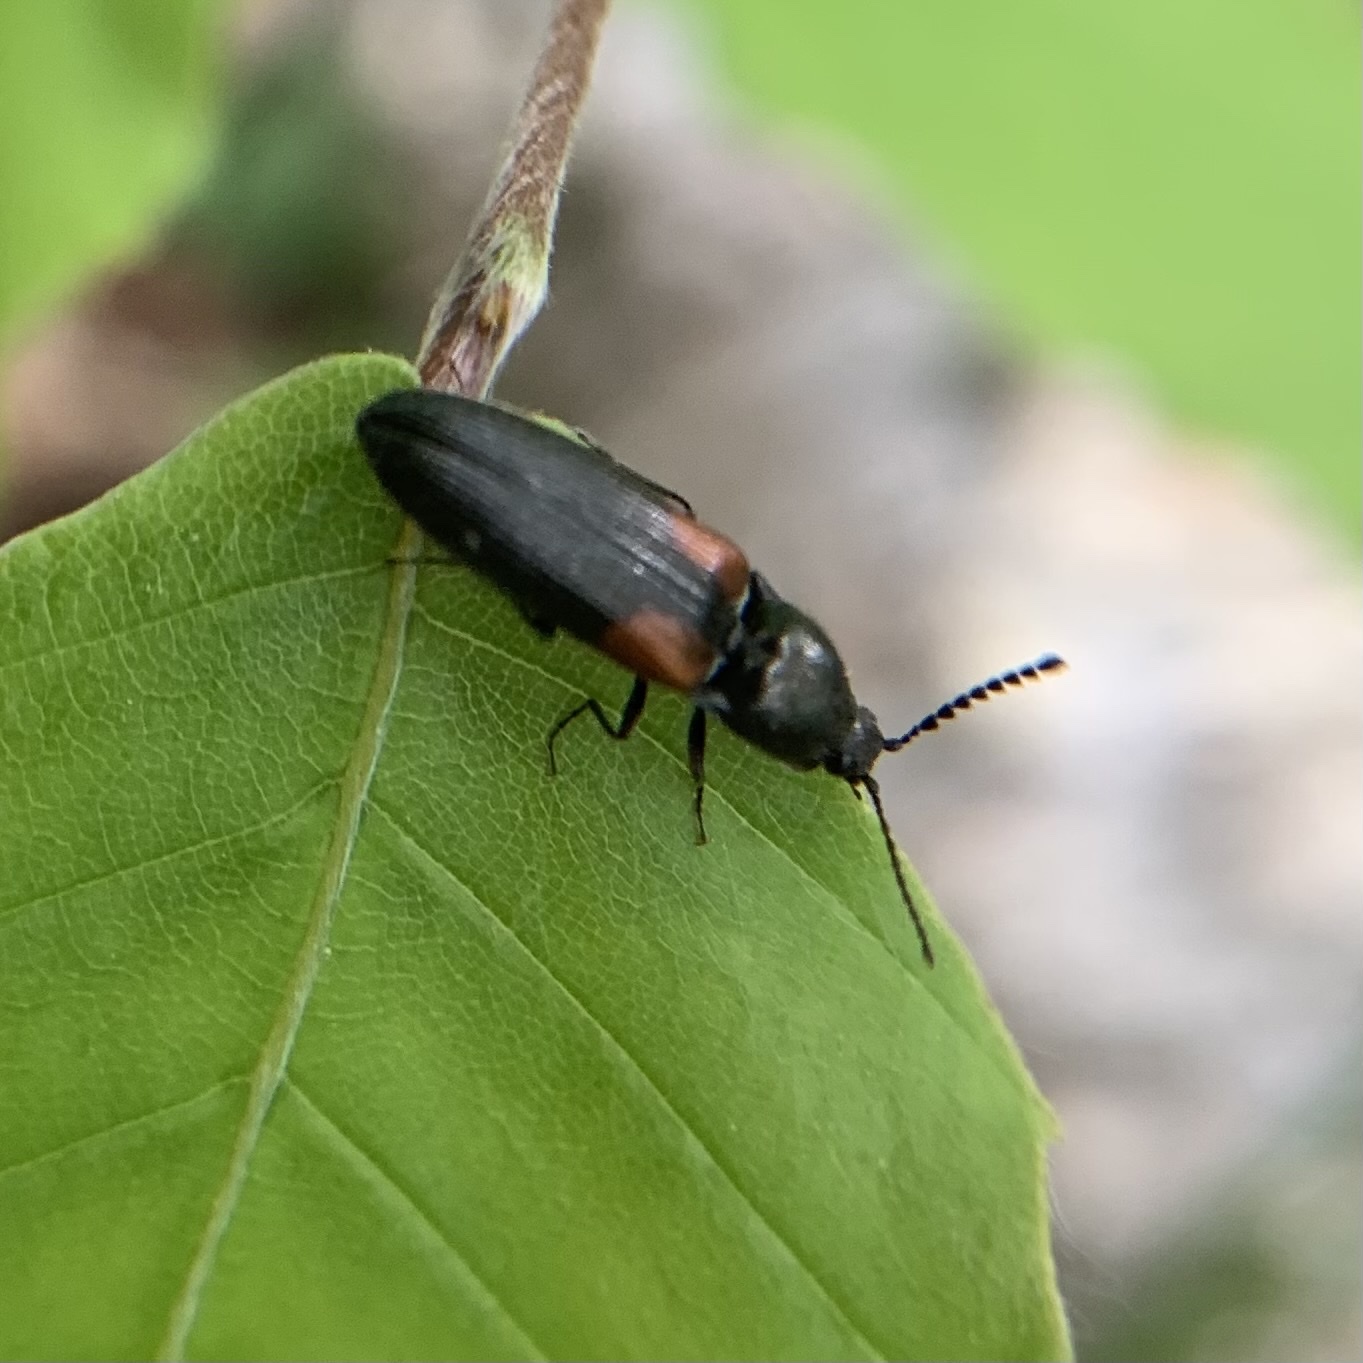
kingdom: Animalia
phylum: Arthropoda
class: Insecta
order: Coleoptera
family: Elateridae
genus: Gambrinus
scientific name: Gambrinus
